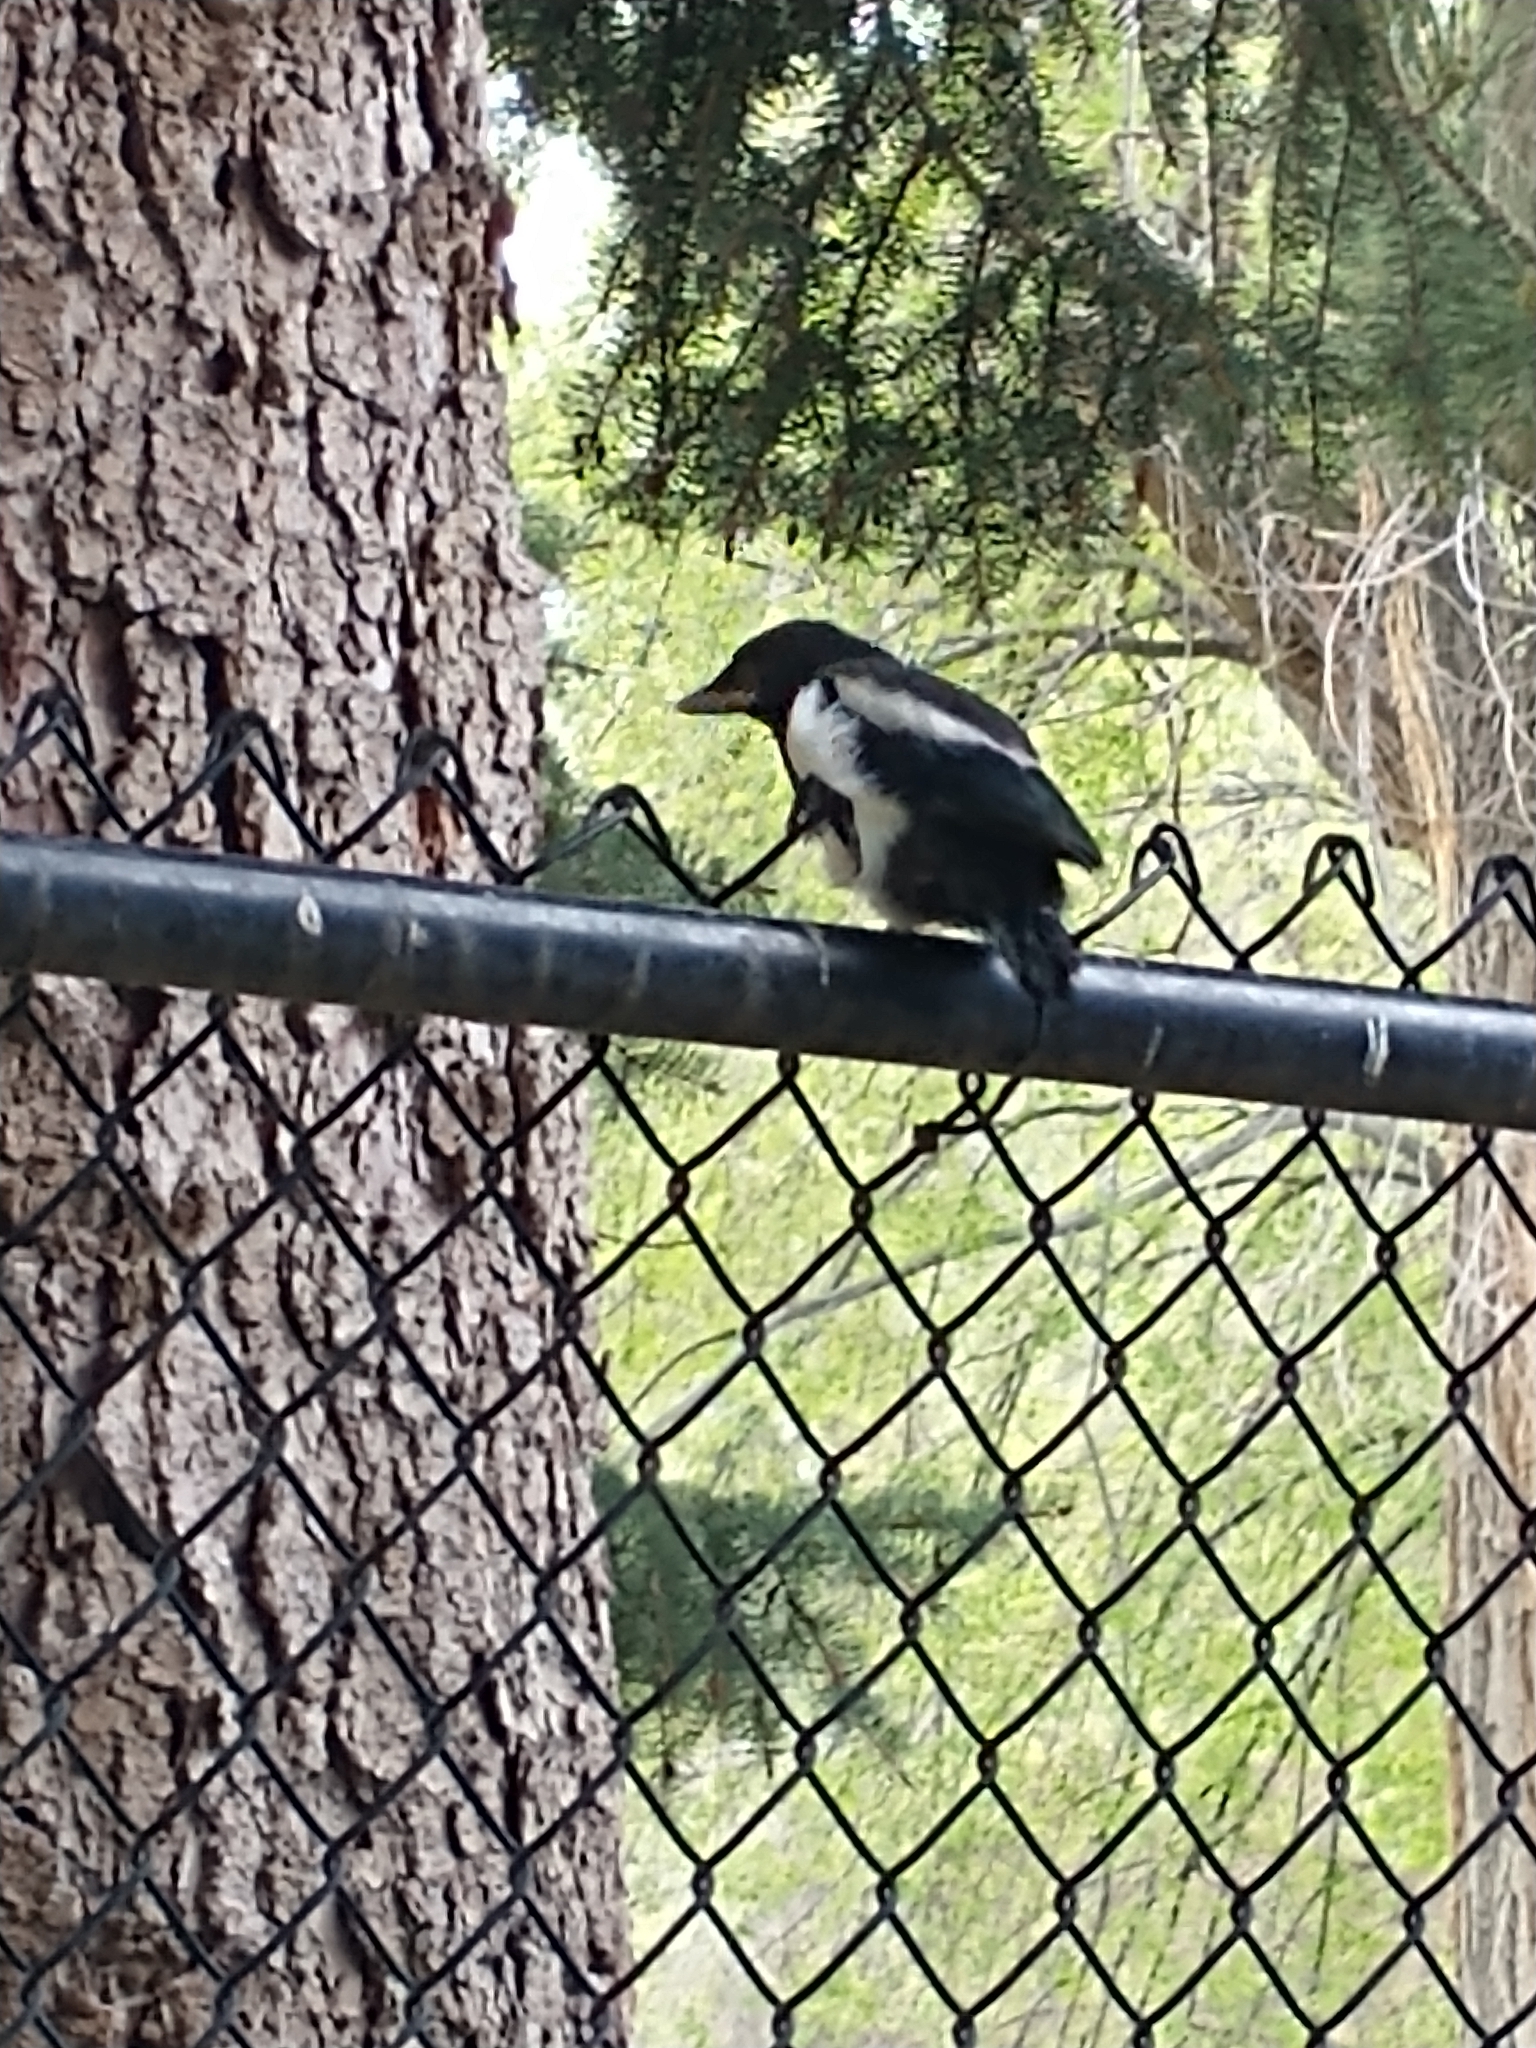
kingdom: Animalia
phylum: Chordata
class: Aves
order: Passeriformes
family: Corvidae
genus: Pica
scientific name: Pica hudsonia
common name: Black-billed magpie
